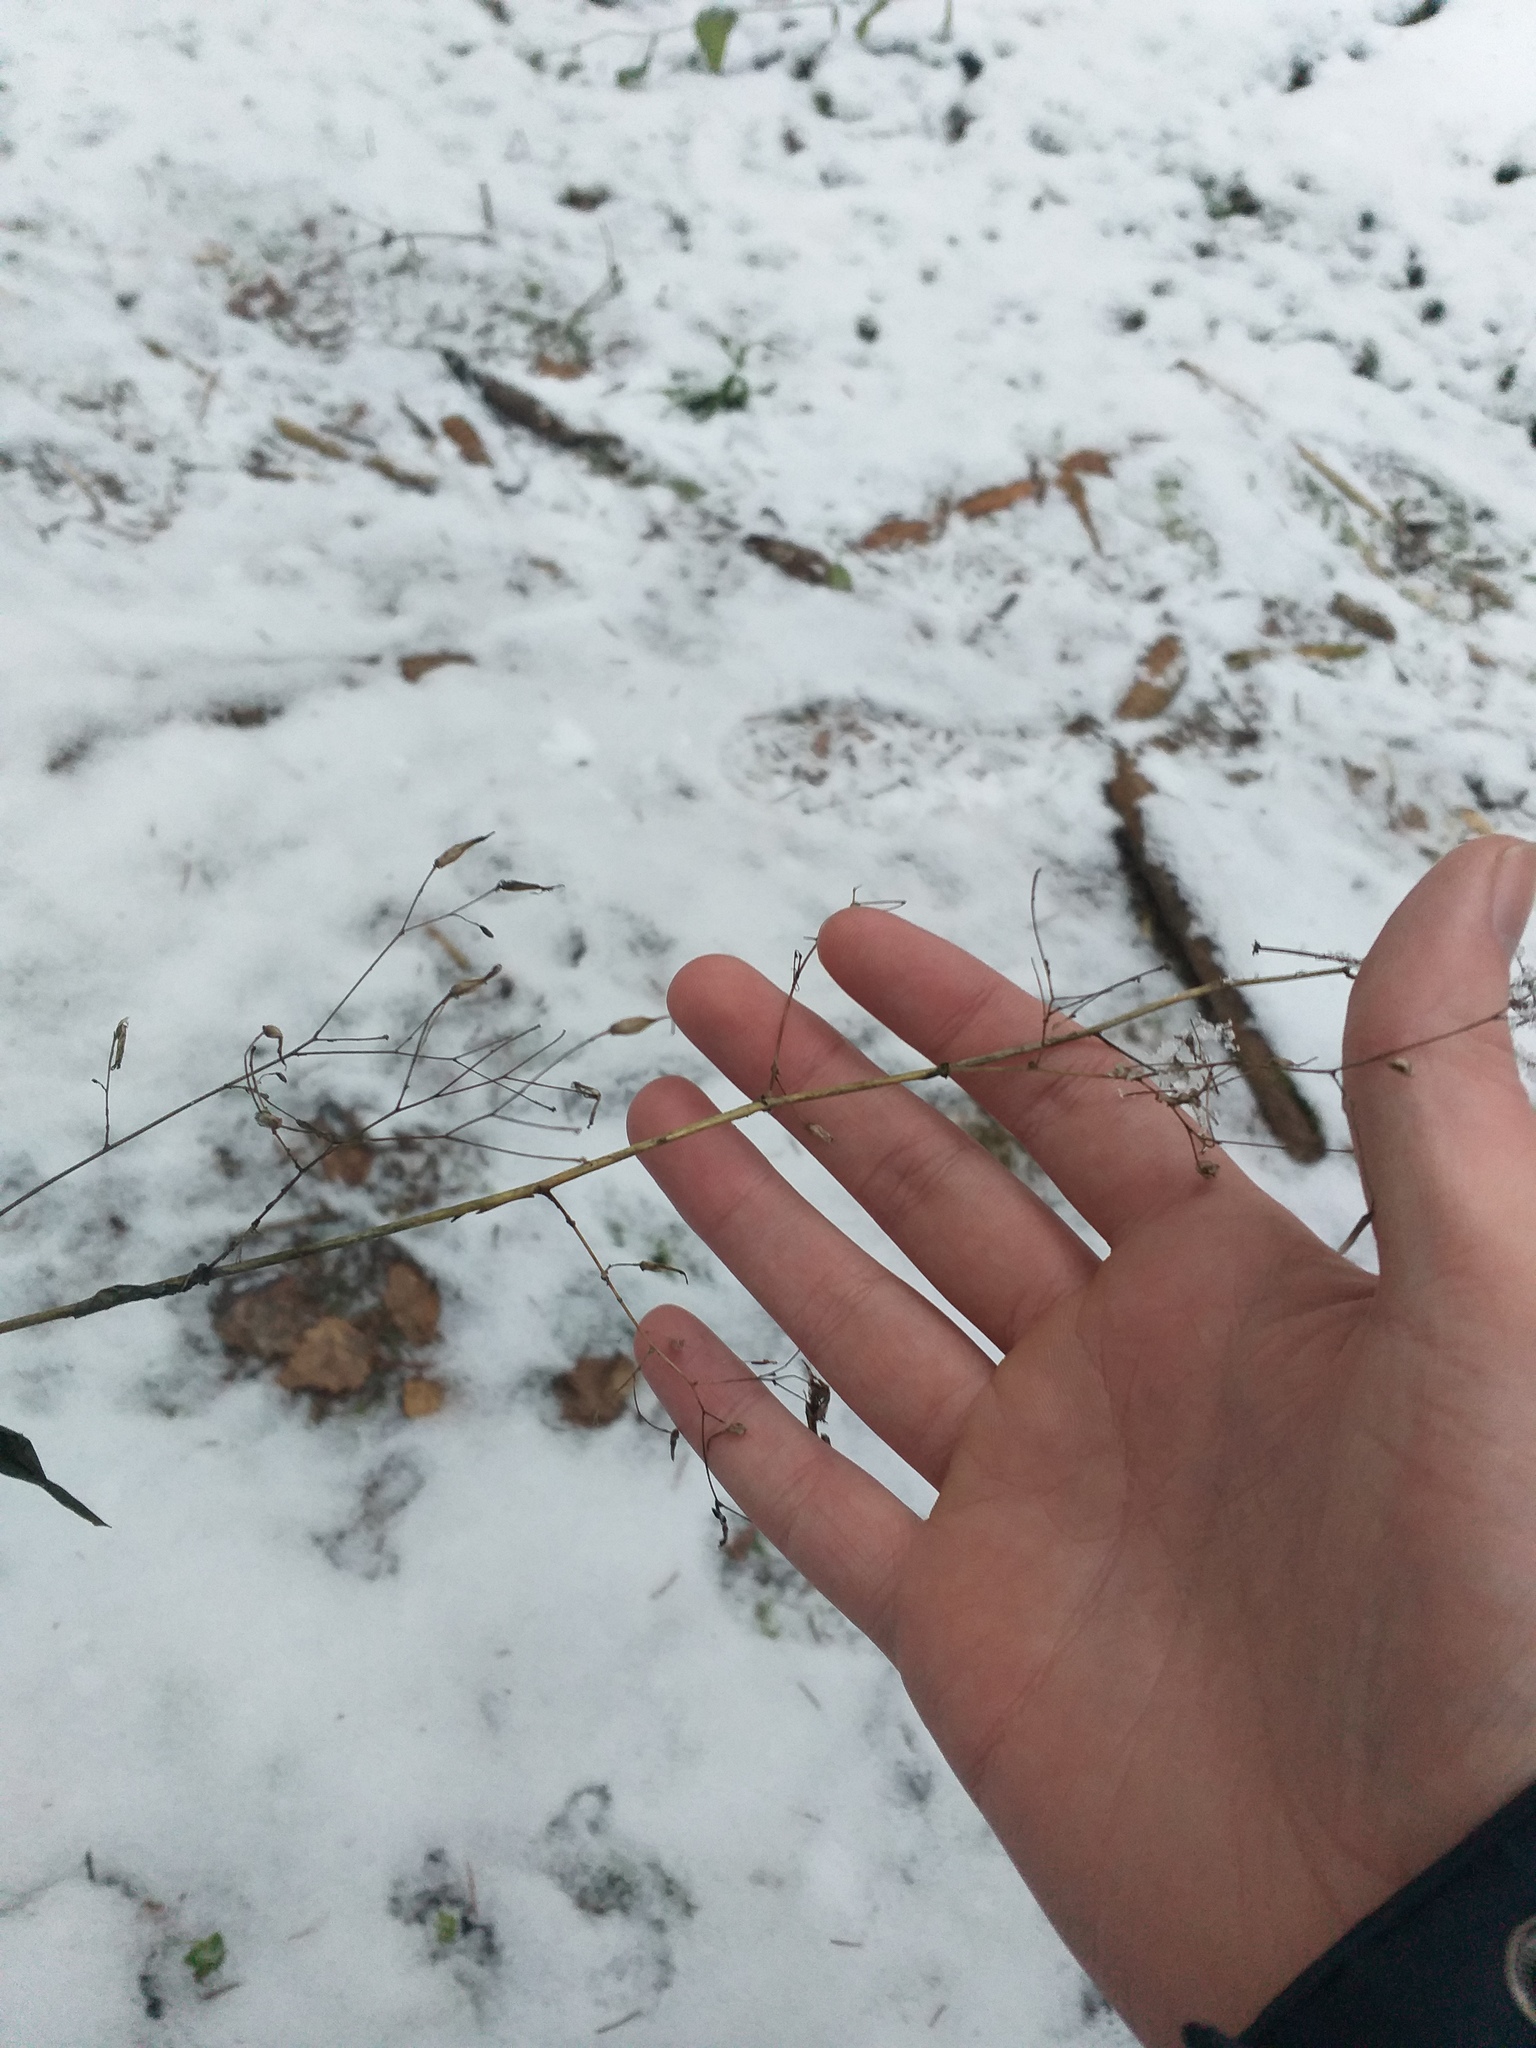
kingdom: Plantae
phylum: Tracheophyta
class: Magnoliopsida
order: Asterales
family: Asteraceae
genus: Mycelis
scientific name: Mycelis muralis
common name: Wall lettuce
